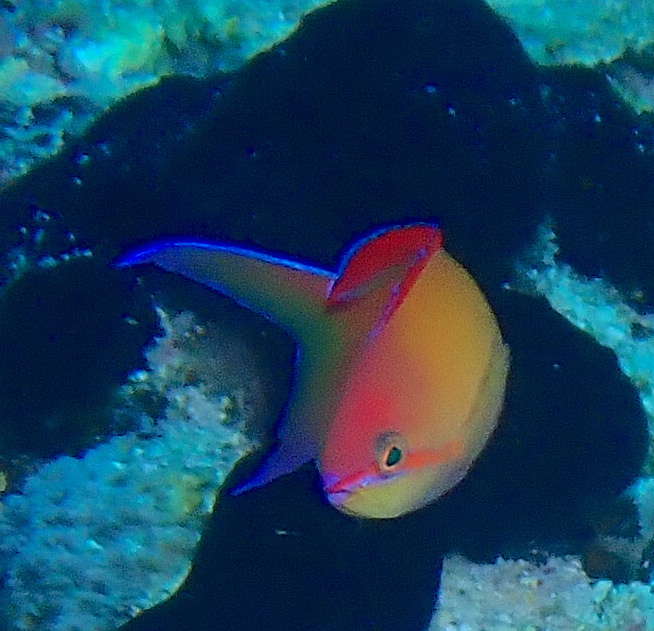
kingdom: Animalia
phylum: Chordata
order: Perciformes
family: Serranidae
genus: Nemanthias
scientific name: Nemanthias
